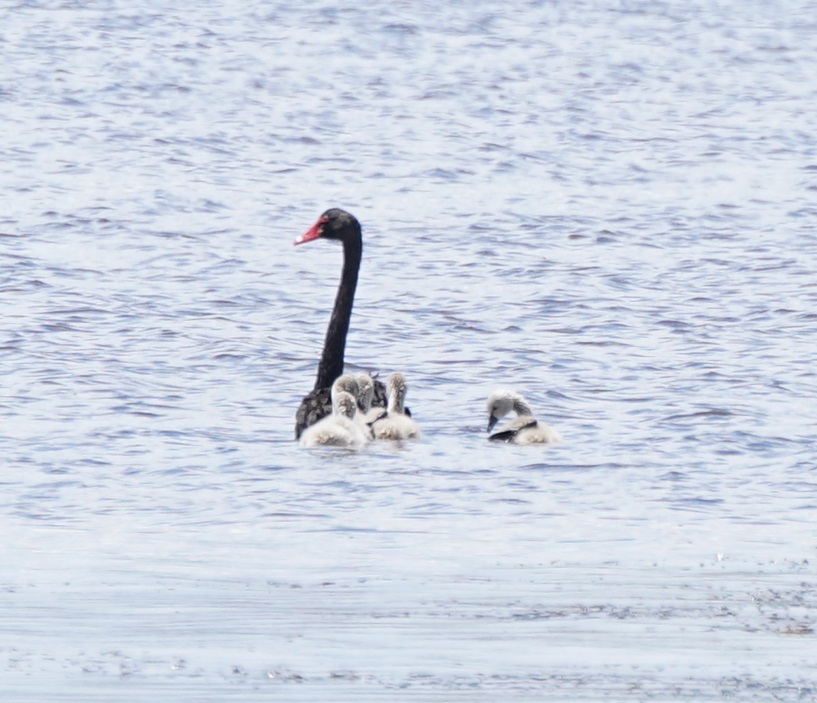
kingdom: Animalia
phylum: Chordata
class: Aves
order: Anseriformes
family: Anatidae
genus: Cygnus
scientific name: Cygnus atratus
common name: Black swan
